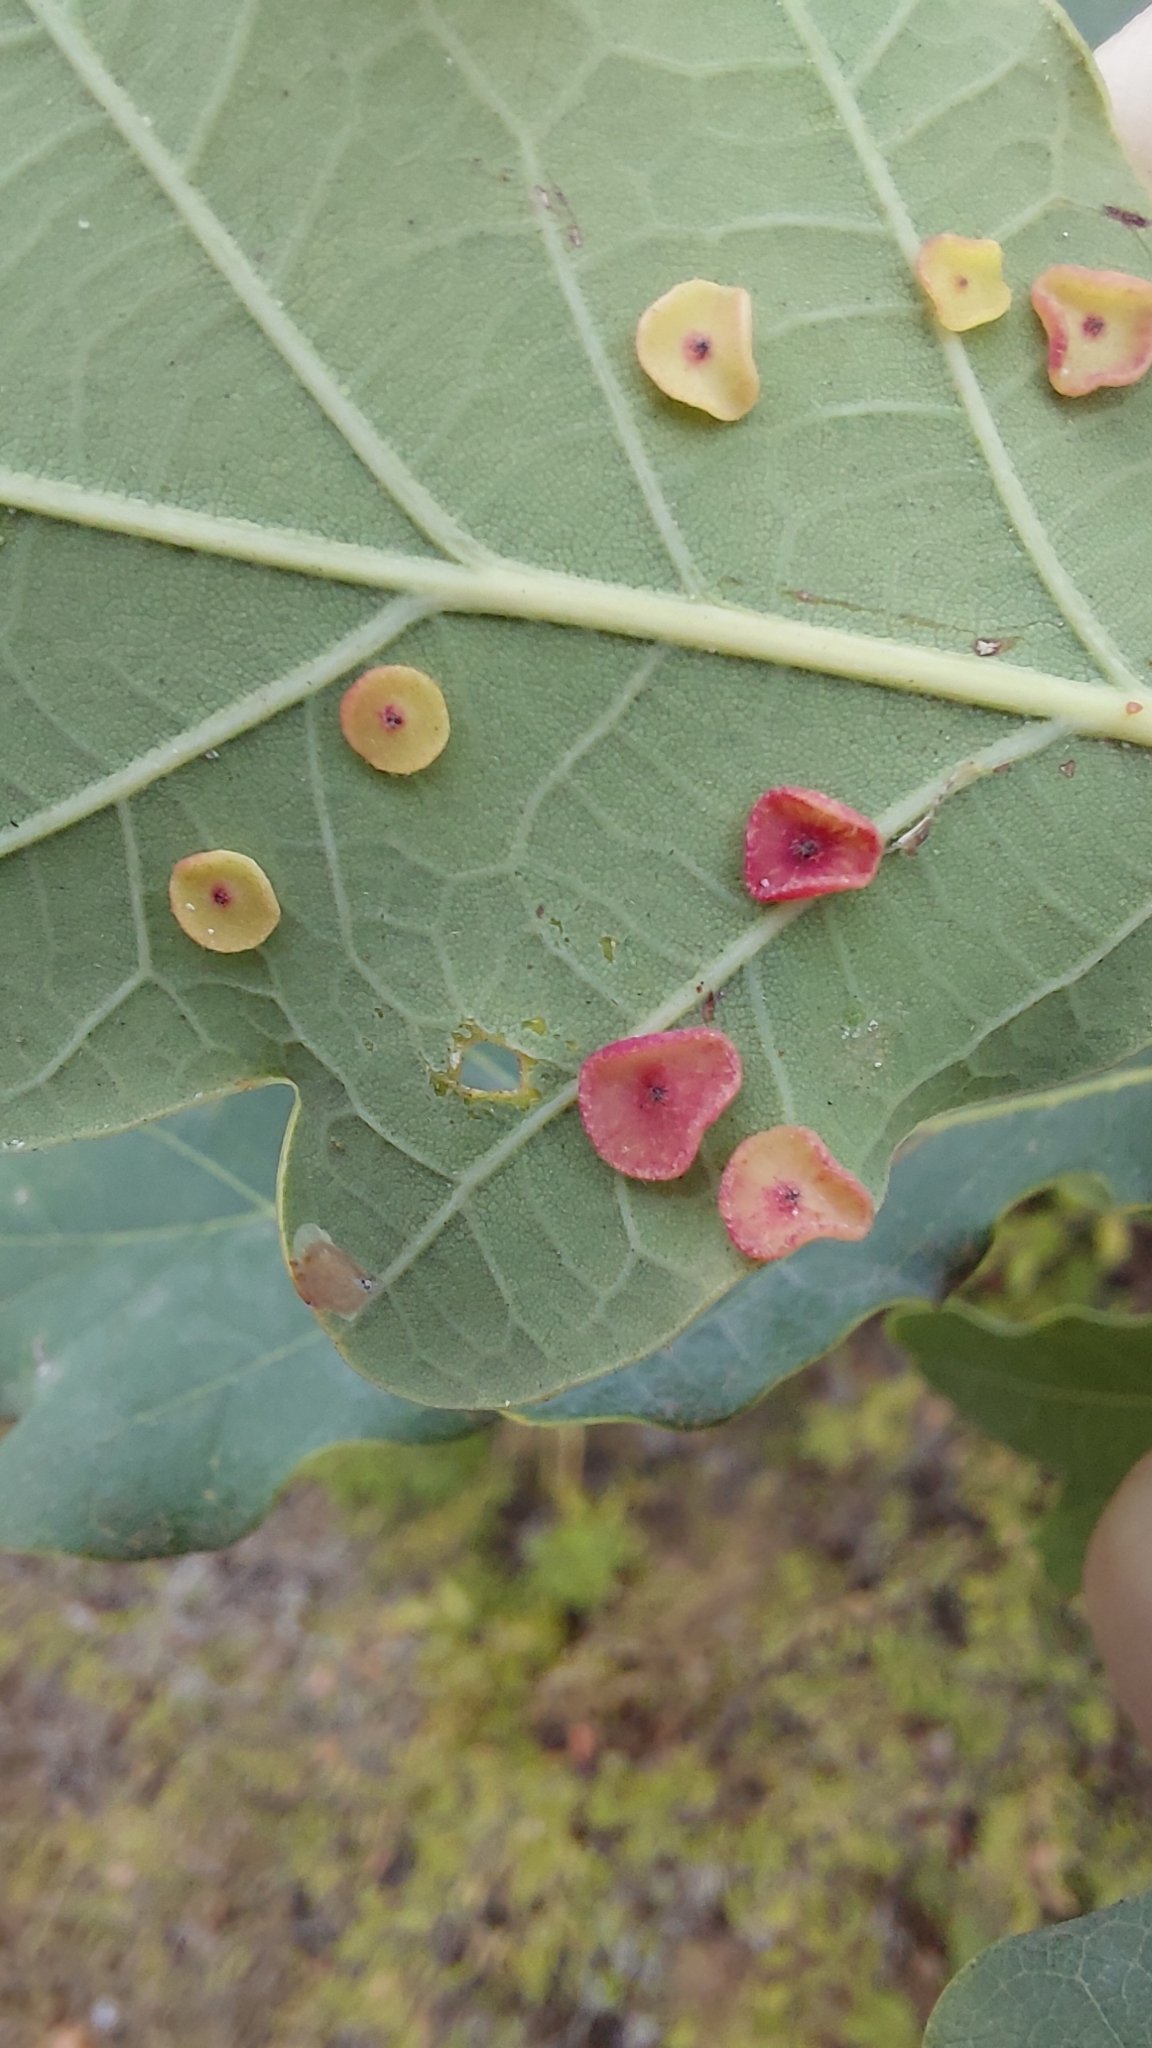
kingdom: Animalia
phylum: Arthropoda
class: Insecta
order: Hymenoptera
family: Cynipidae
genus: Neuroterus
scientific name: Neuroterus albipes
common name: Smooth spangle gall
